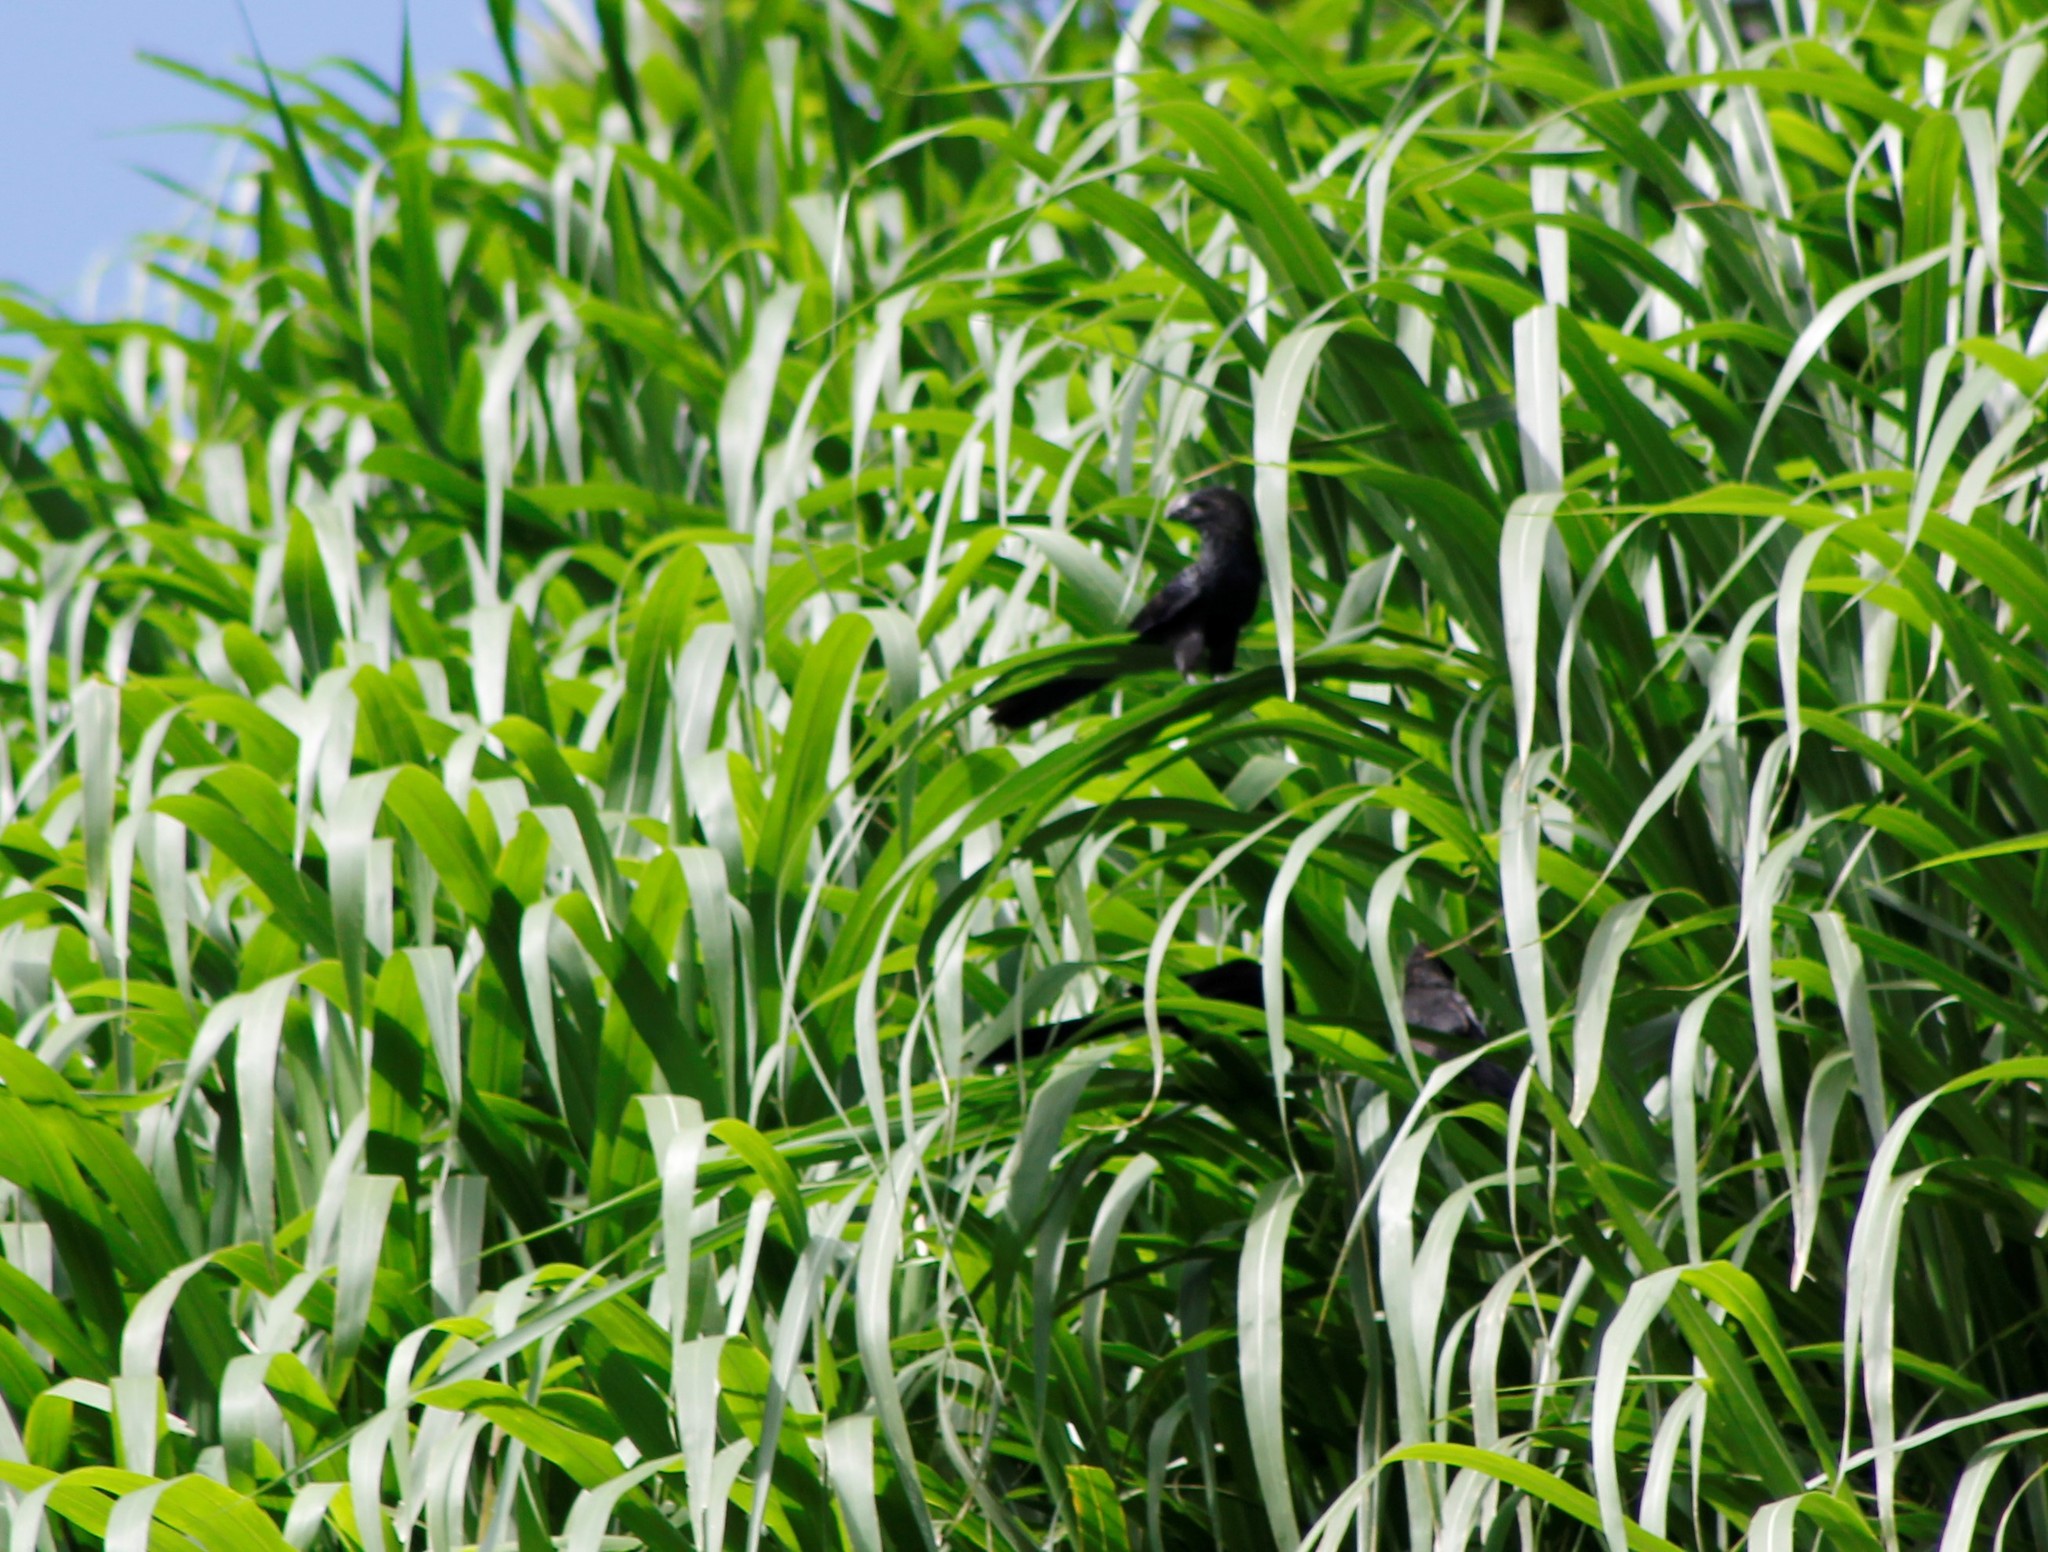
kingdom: Animalia
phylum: Chordata
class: Aves
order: Cuculiformes
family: Cuculidae
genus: Crotophaga
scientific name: Crotophaga ani
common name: Smooth-billed ani
